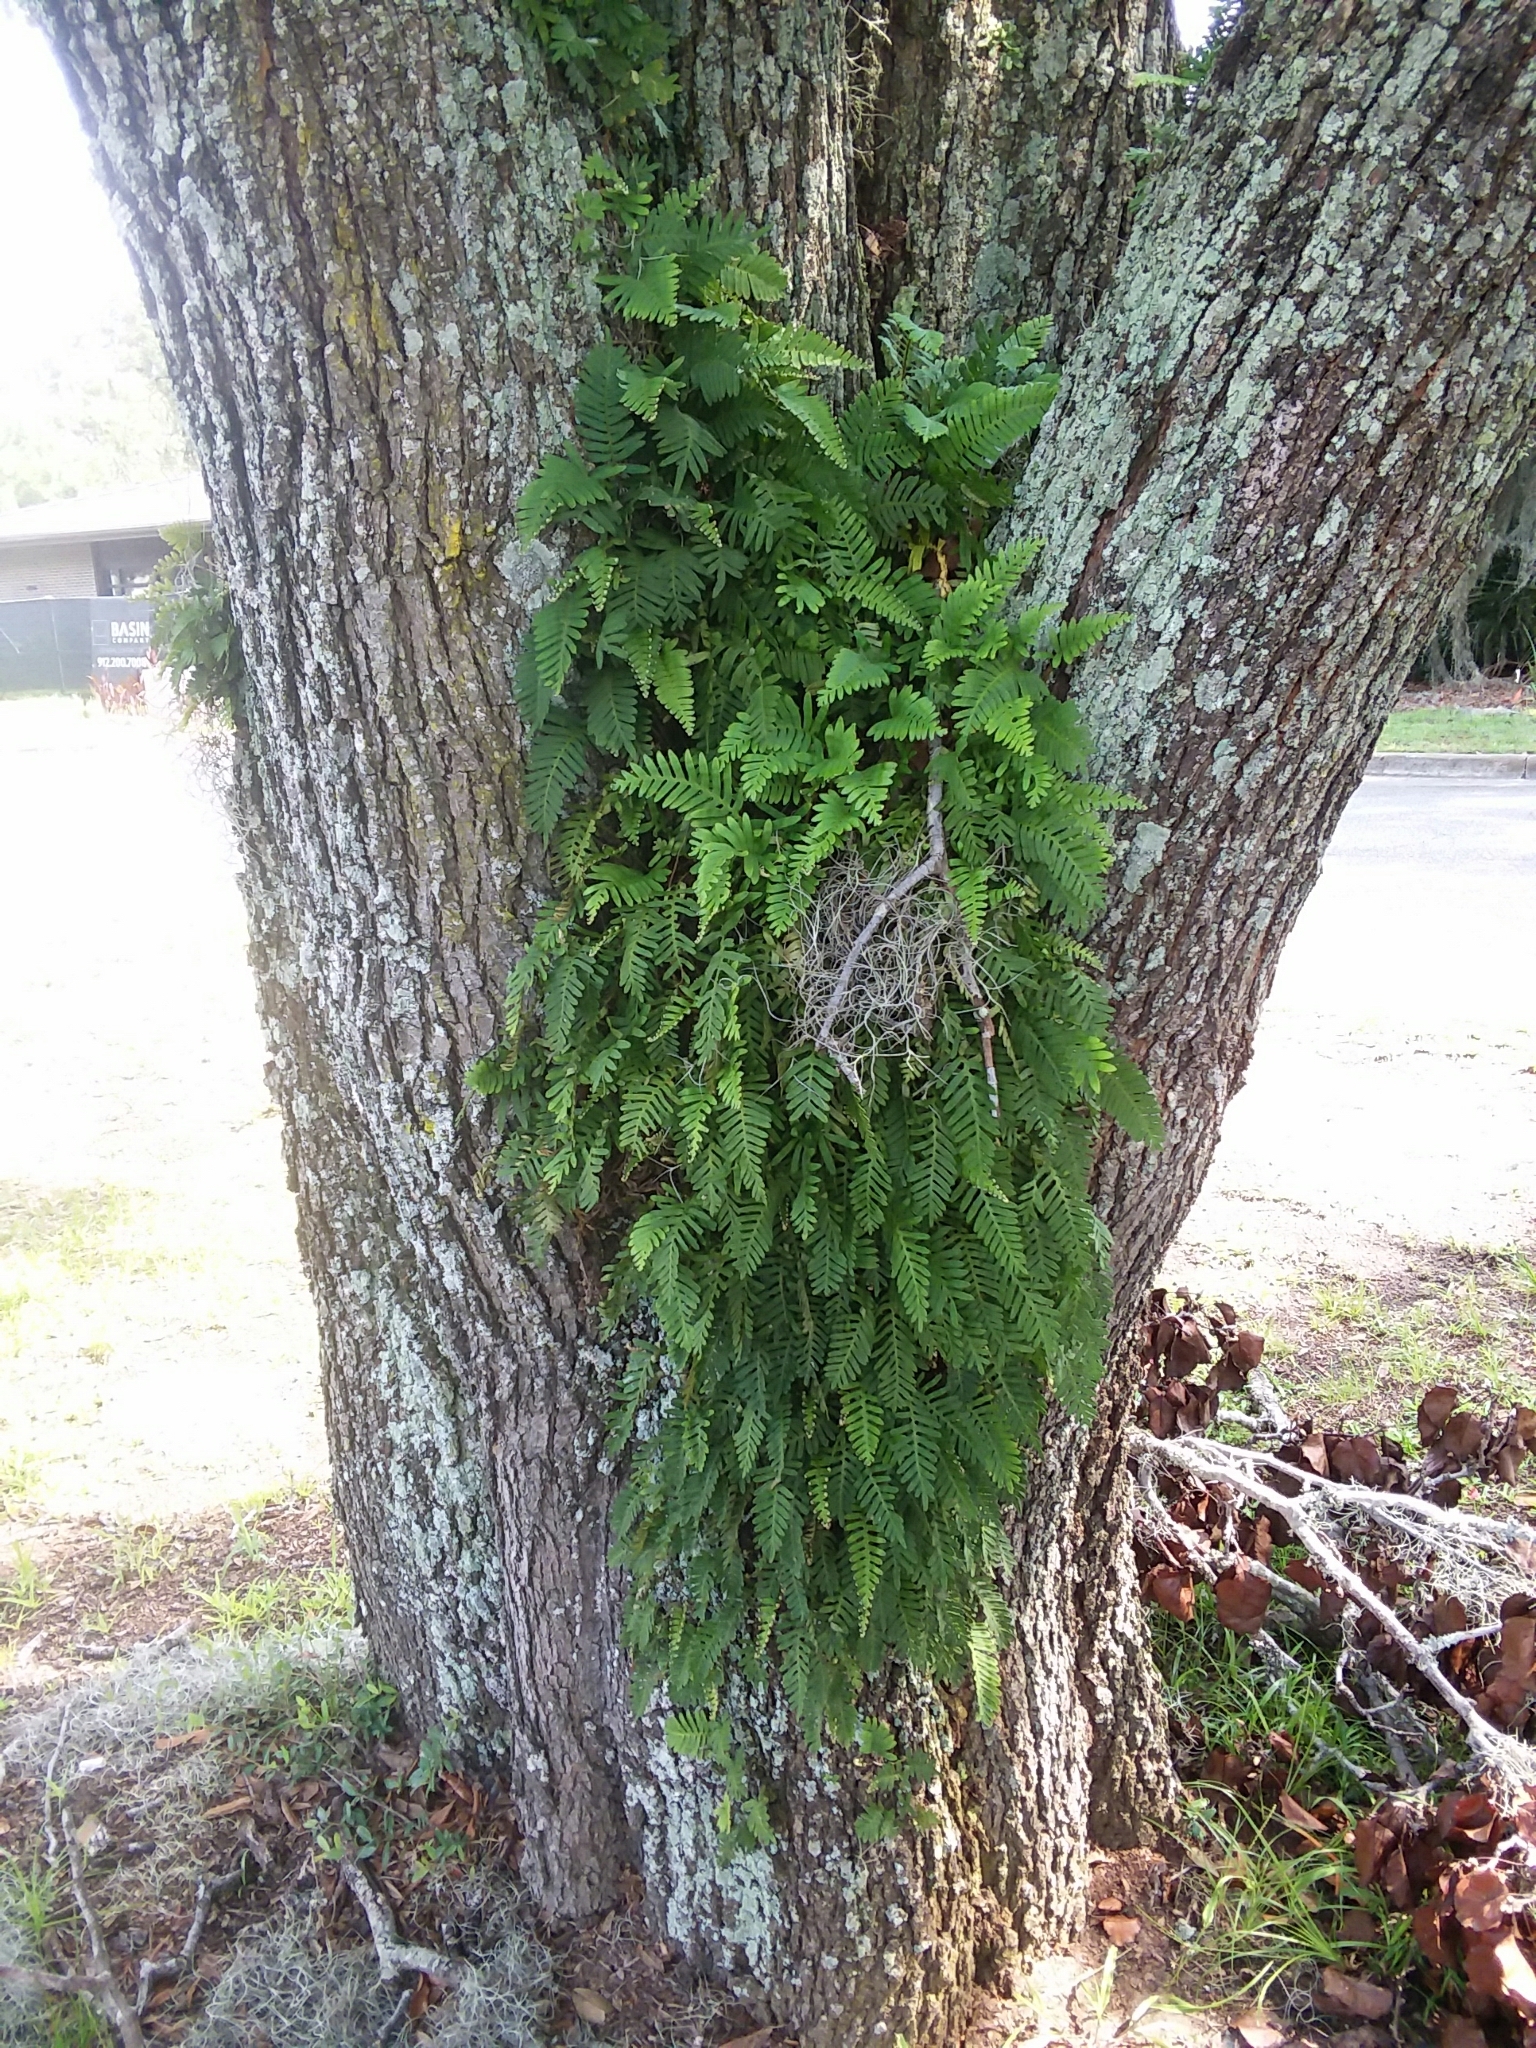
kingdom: Plantae
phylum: Tracheophyta
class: Polypodiopsida
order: Polypodiales
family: Polypodiaceae
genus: Pleopeltis
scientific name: Pleopeltis michauxiana
